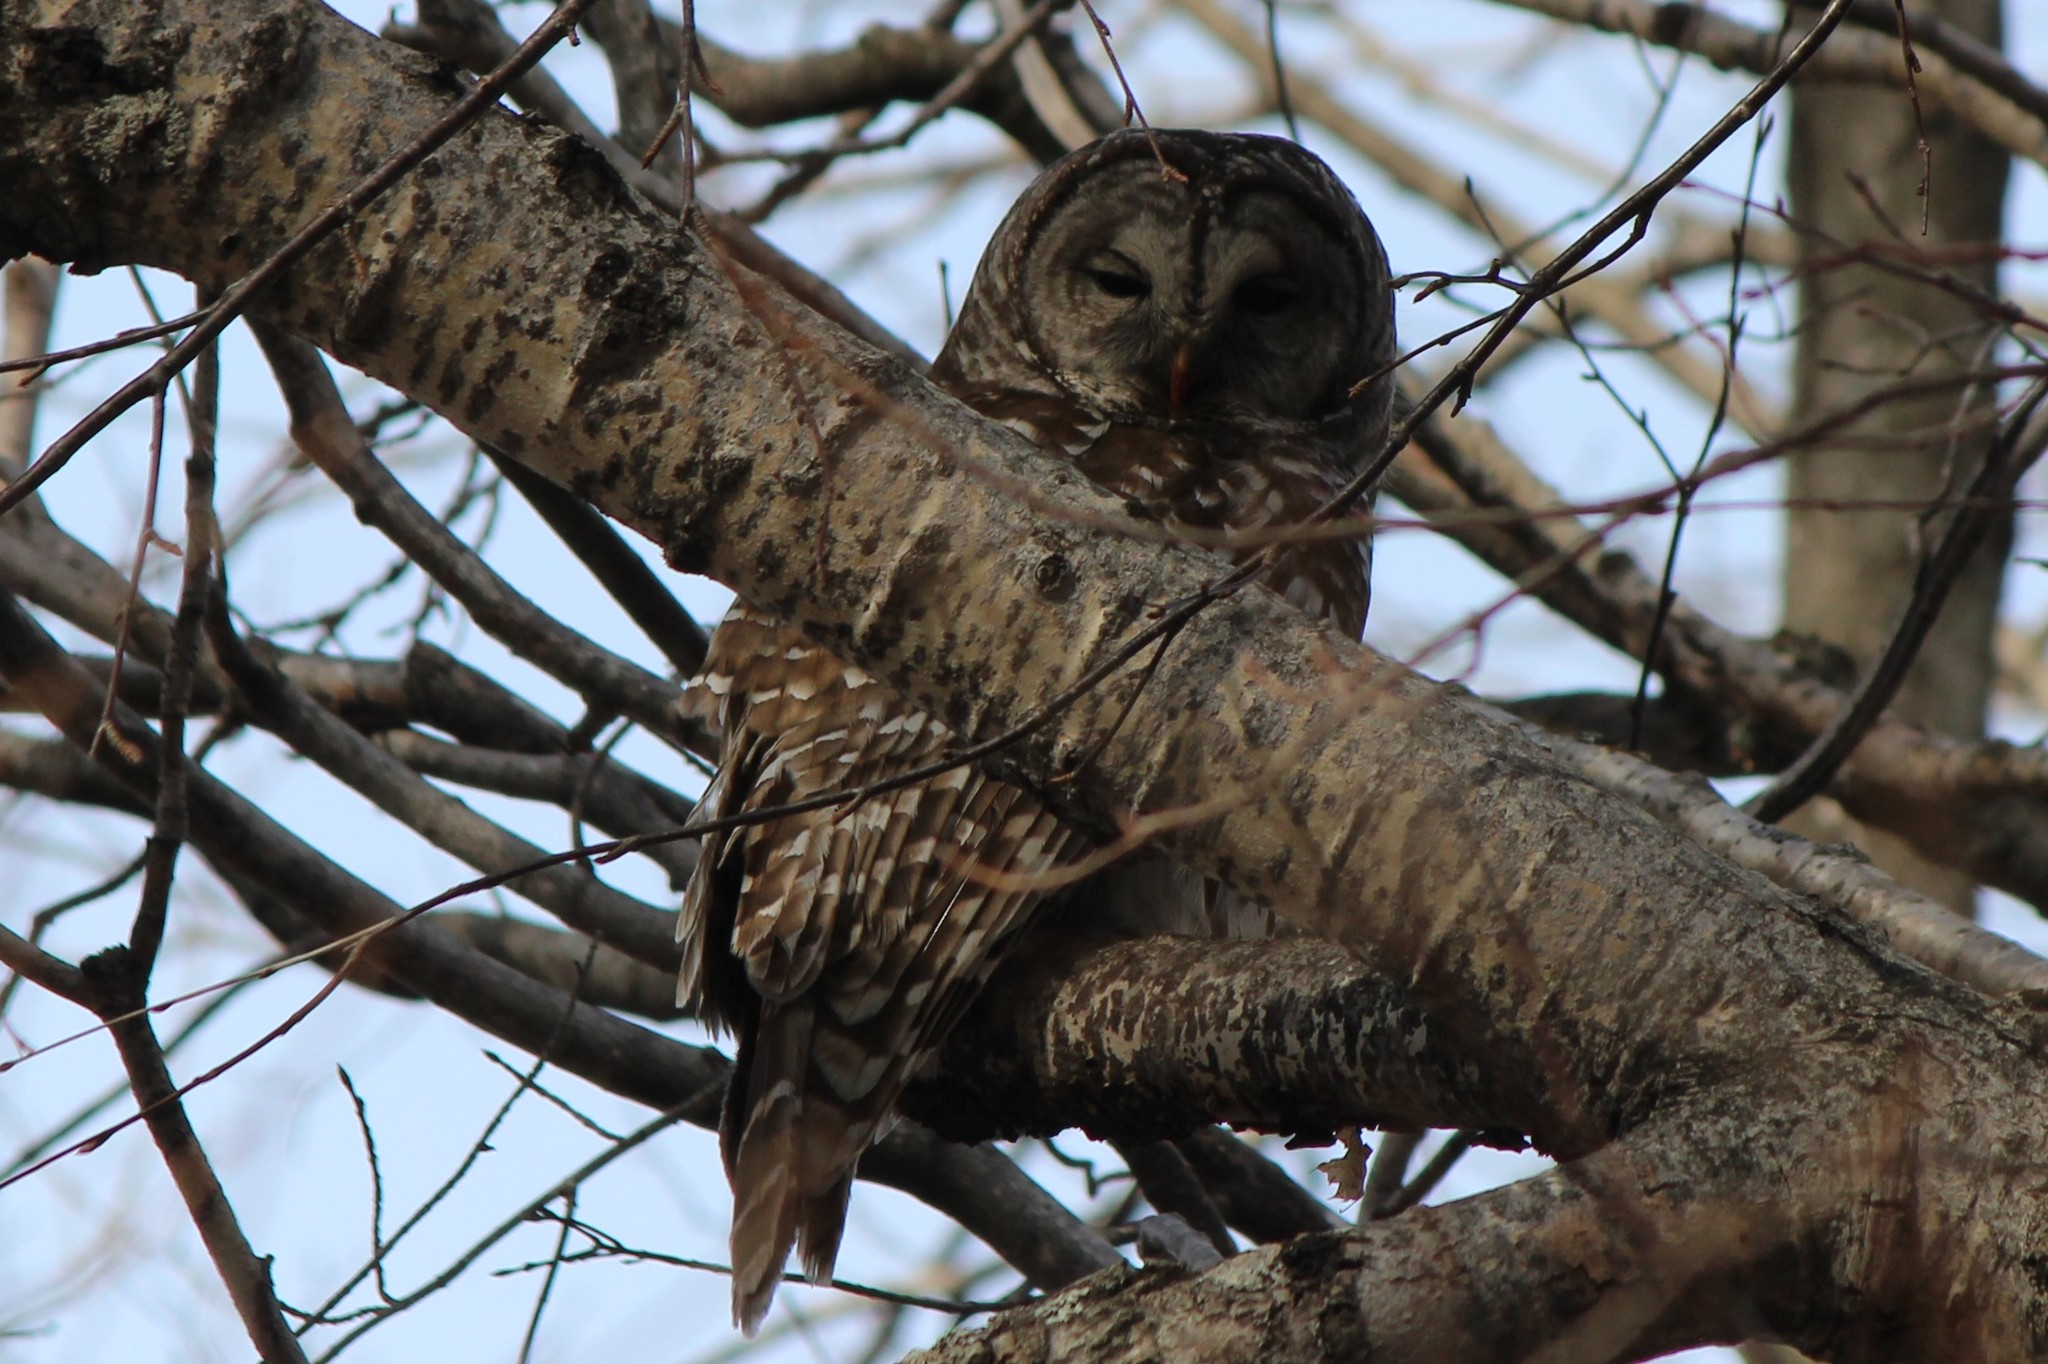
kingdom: Animalia
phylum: Chordata
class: Aves
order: Strigiformes
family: Strigidae
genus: Strix
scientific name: Strix varia
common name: Barred owl
